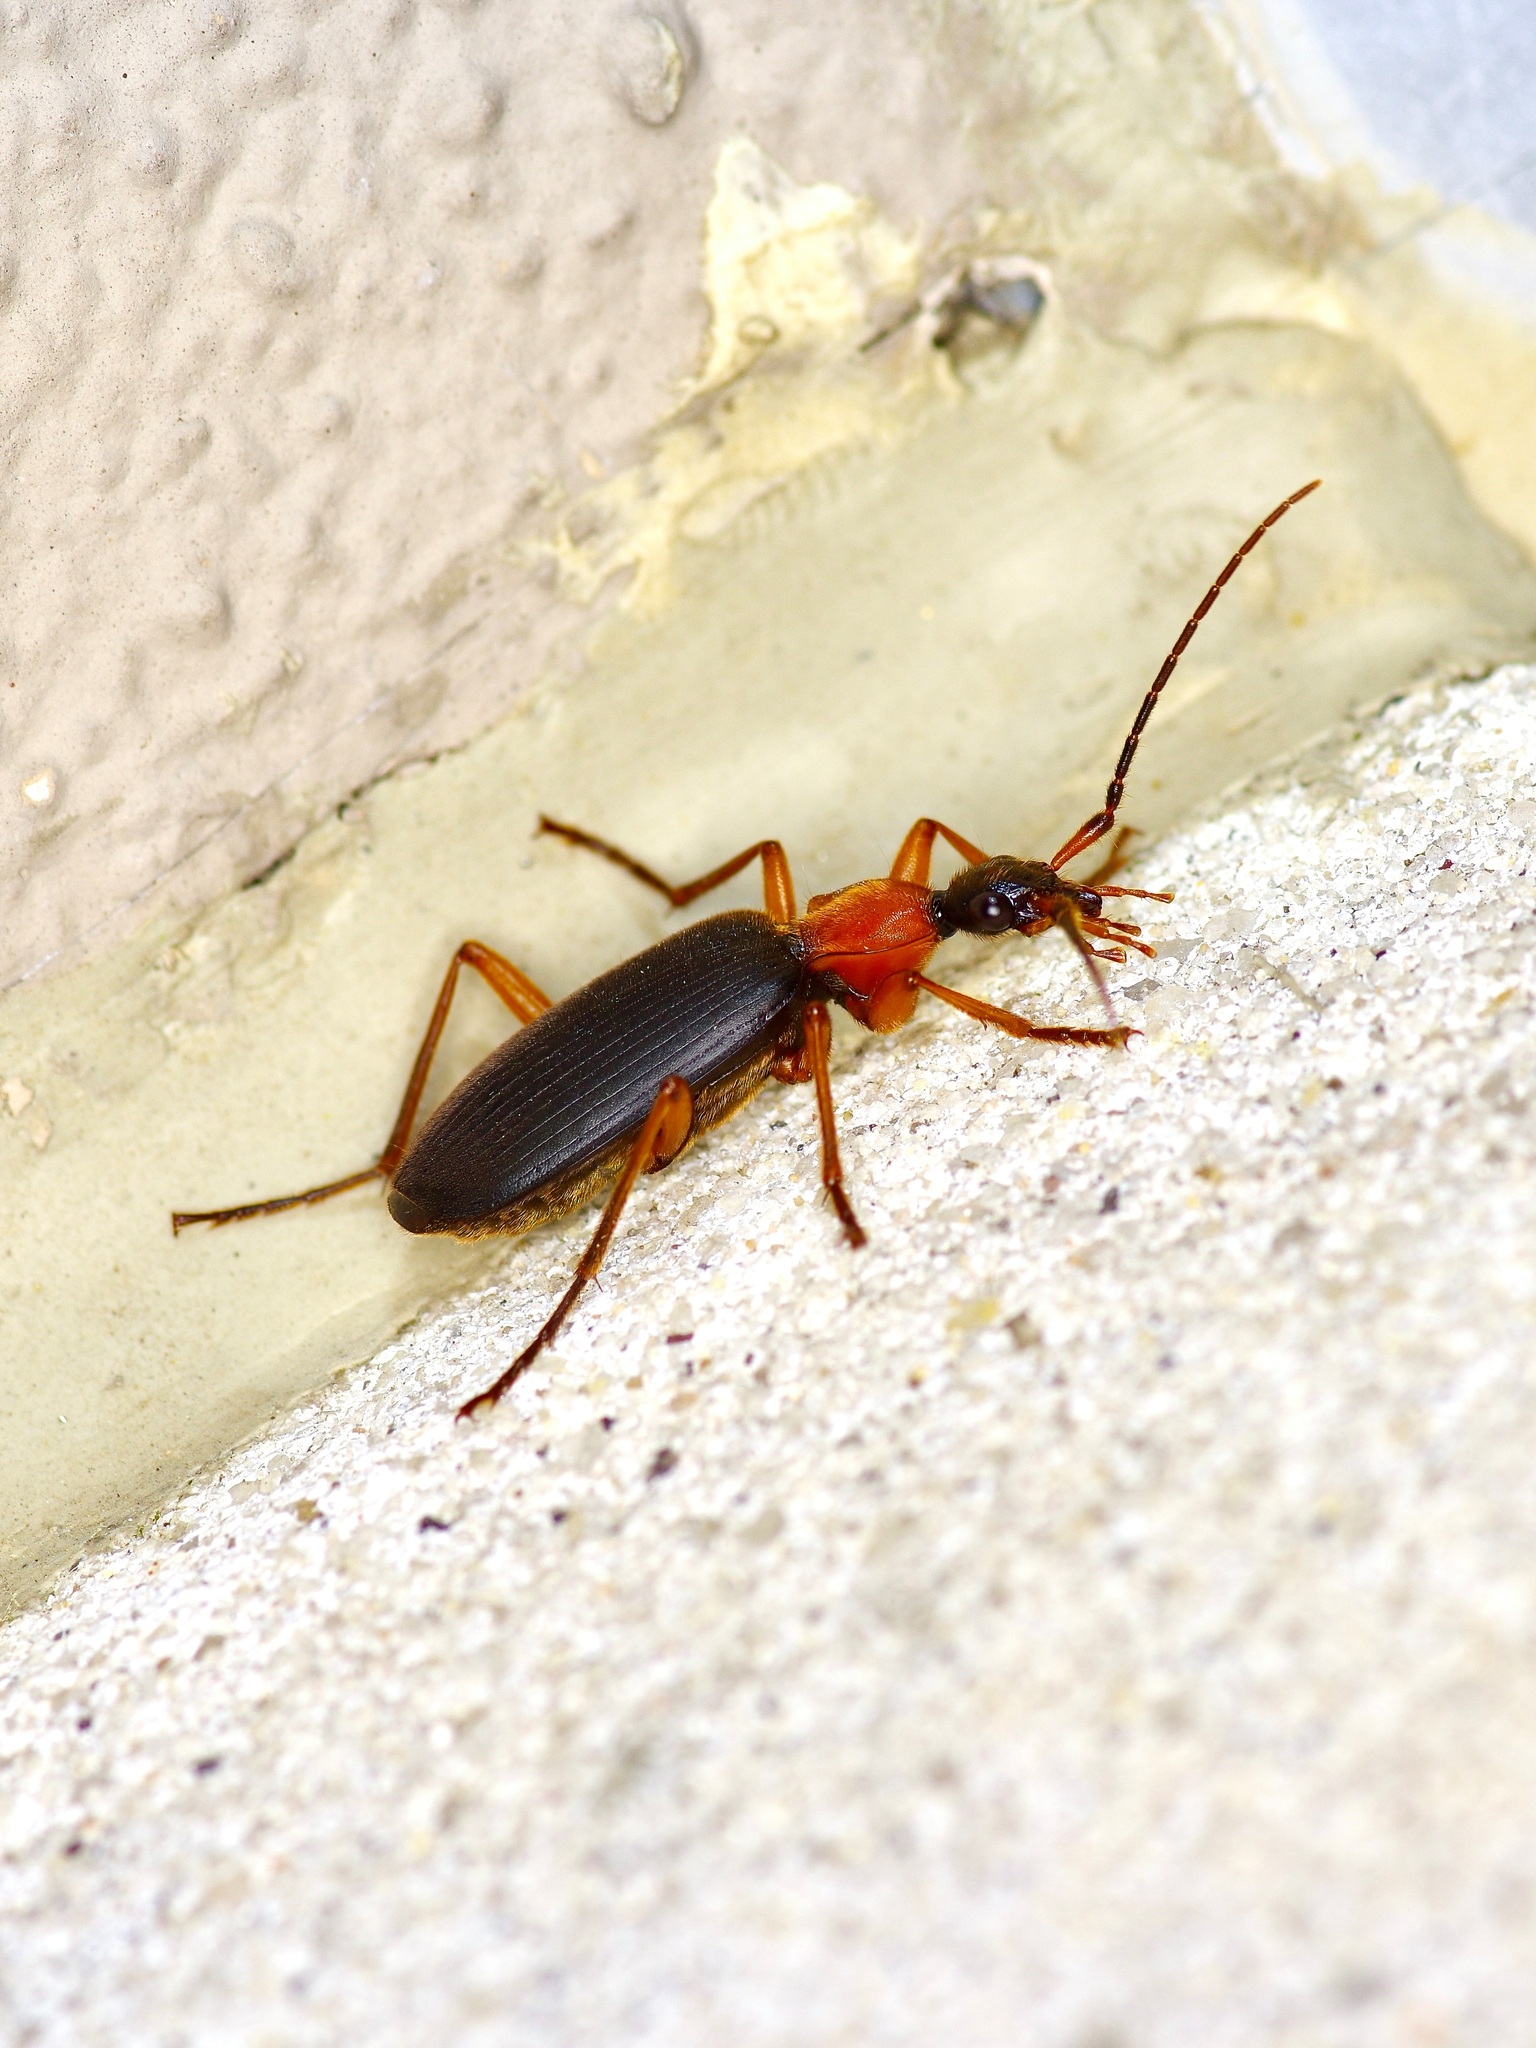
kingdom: Animalia
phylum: Arthropoda
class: Insecta
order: Coleoptera
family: Carabidae
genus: Galerita
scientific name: Galerita bicolor
